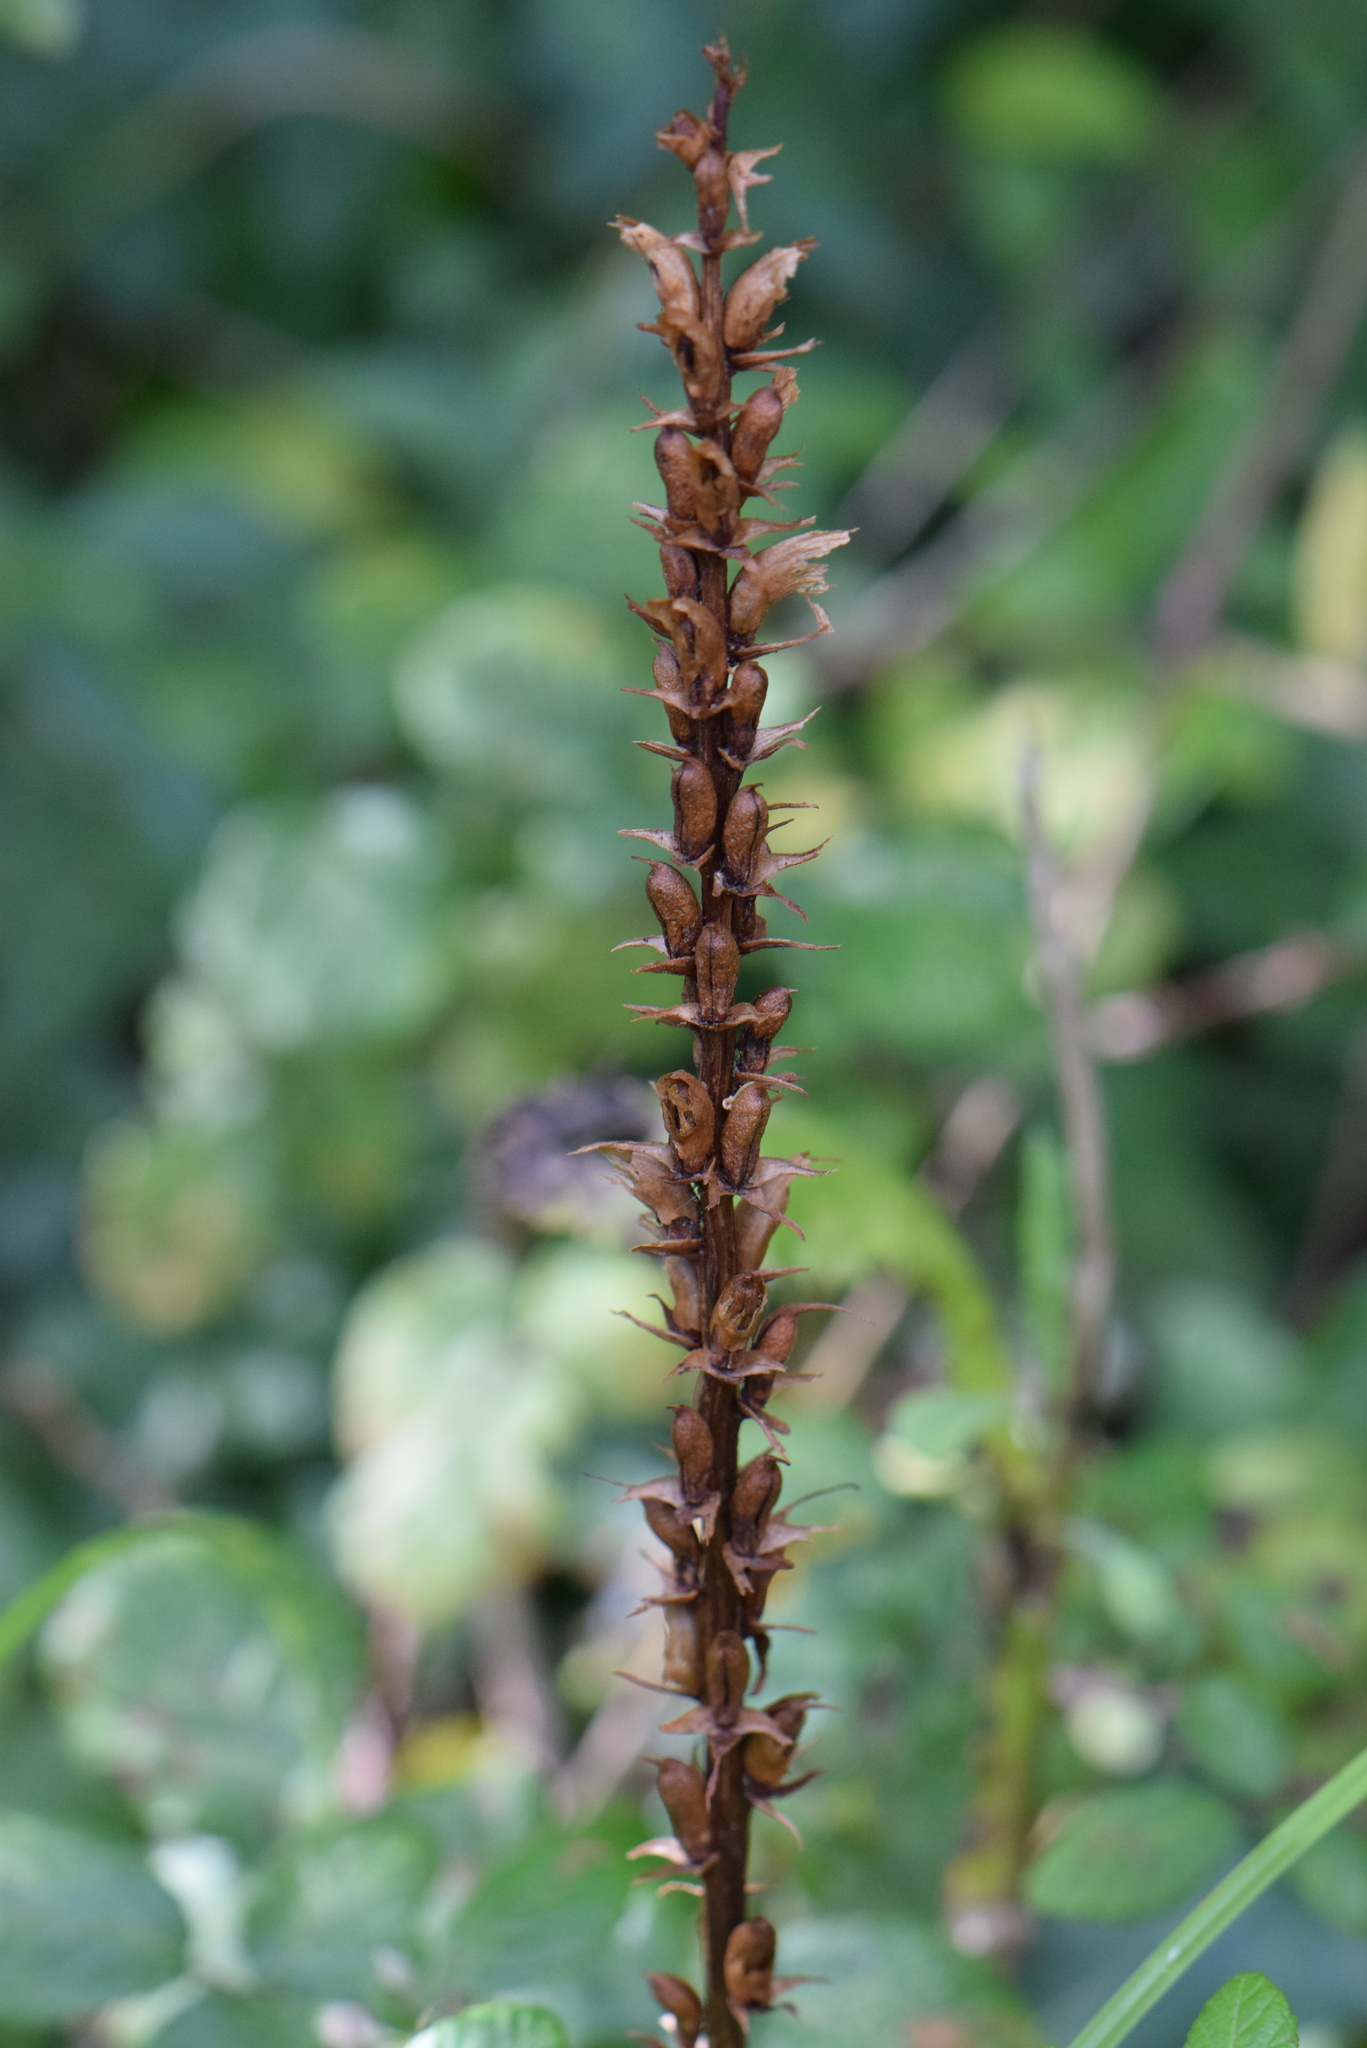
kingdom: Plantae
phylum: Tracheophyta
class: Magnoliopsida
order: Lamiales
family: Orobanchaceae
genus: Orobanche
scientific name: Orobanche hederae
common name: Ivy broomrape
